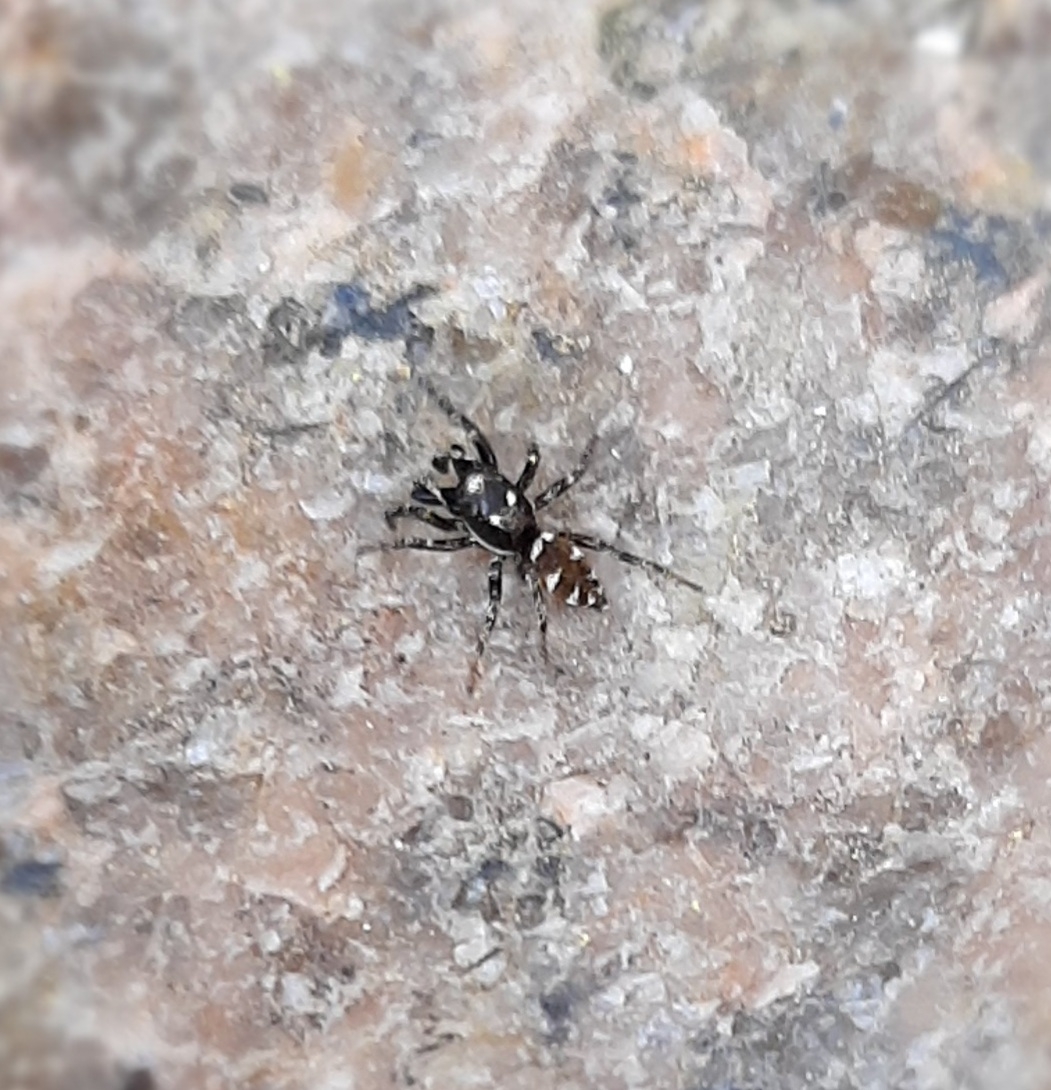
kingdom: Animalia
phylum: Arthropoda
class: Arachnida
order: Araneae
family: Salticidae
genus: Salticus
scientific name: Salticus scenicus
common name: Zebra jumper
